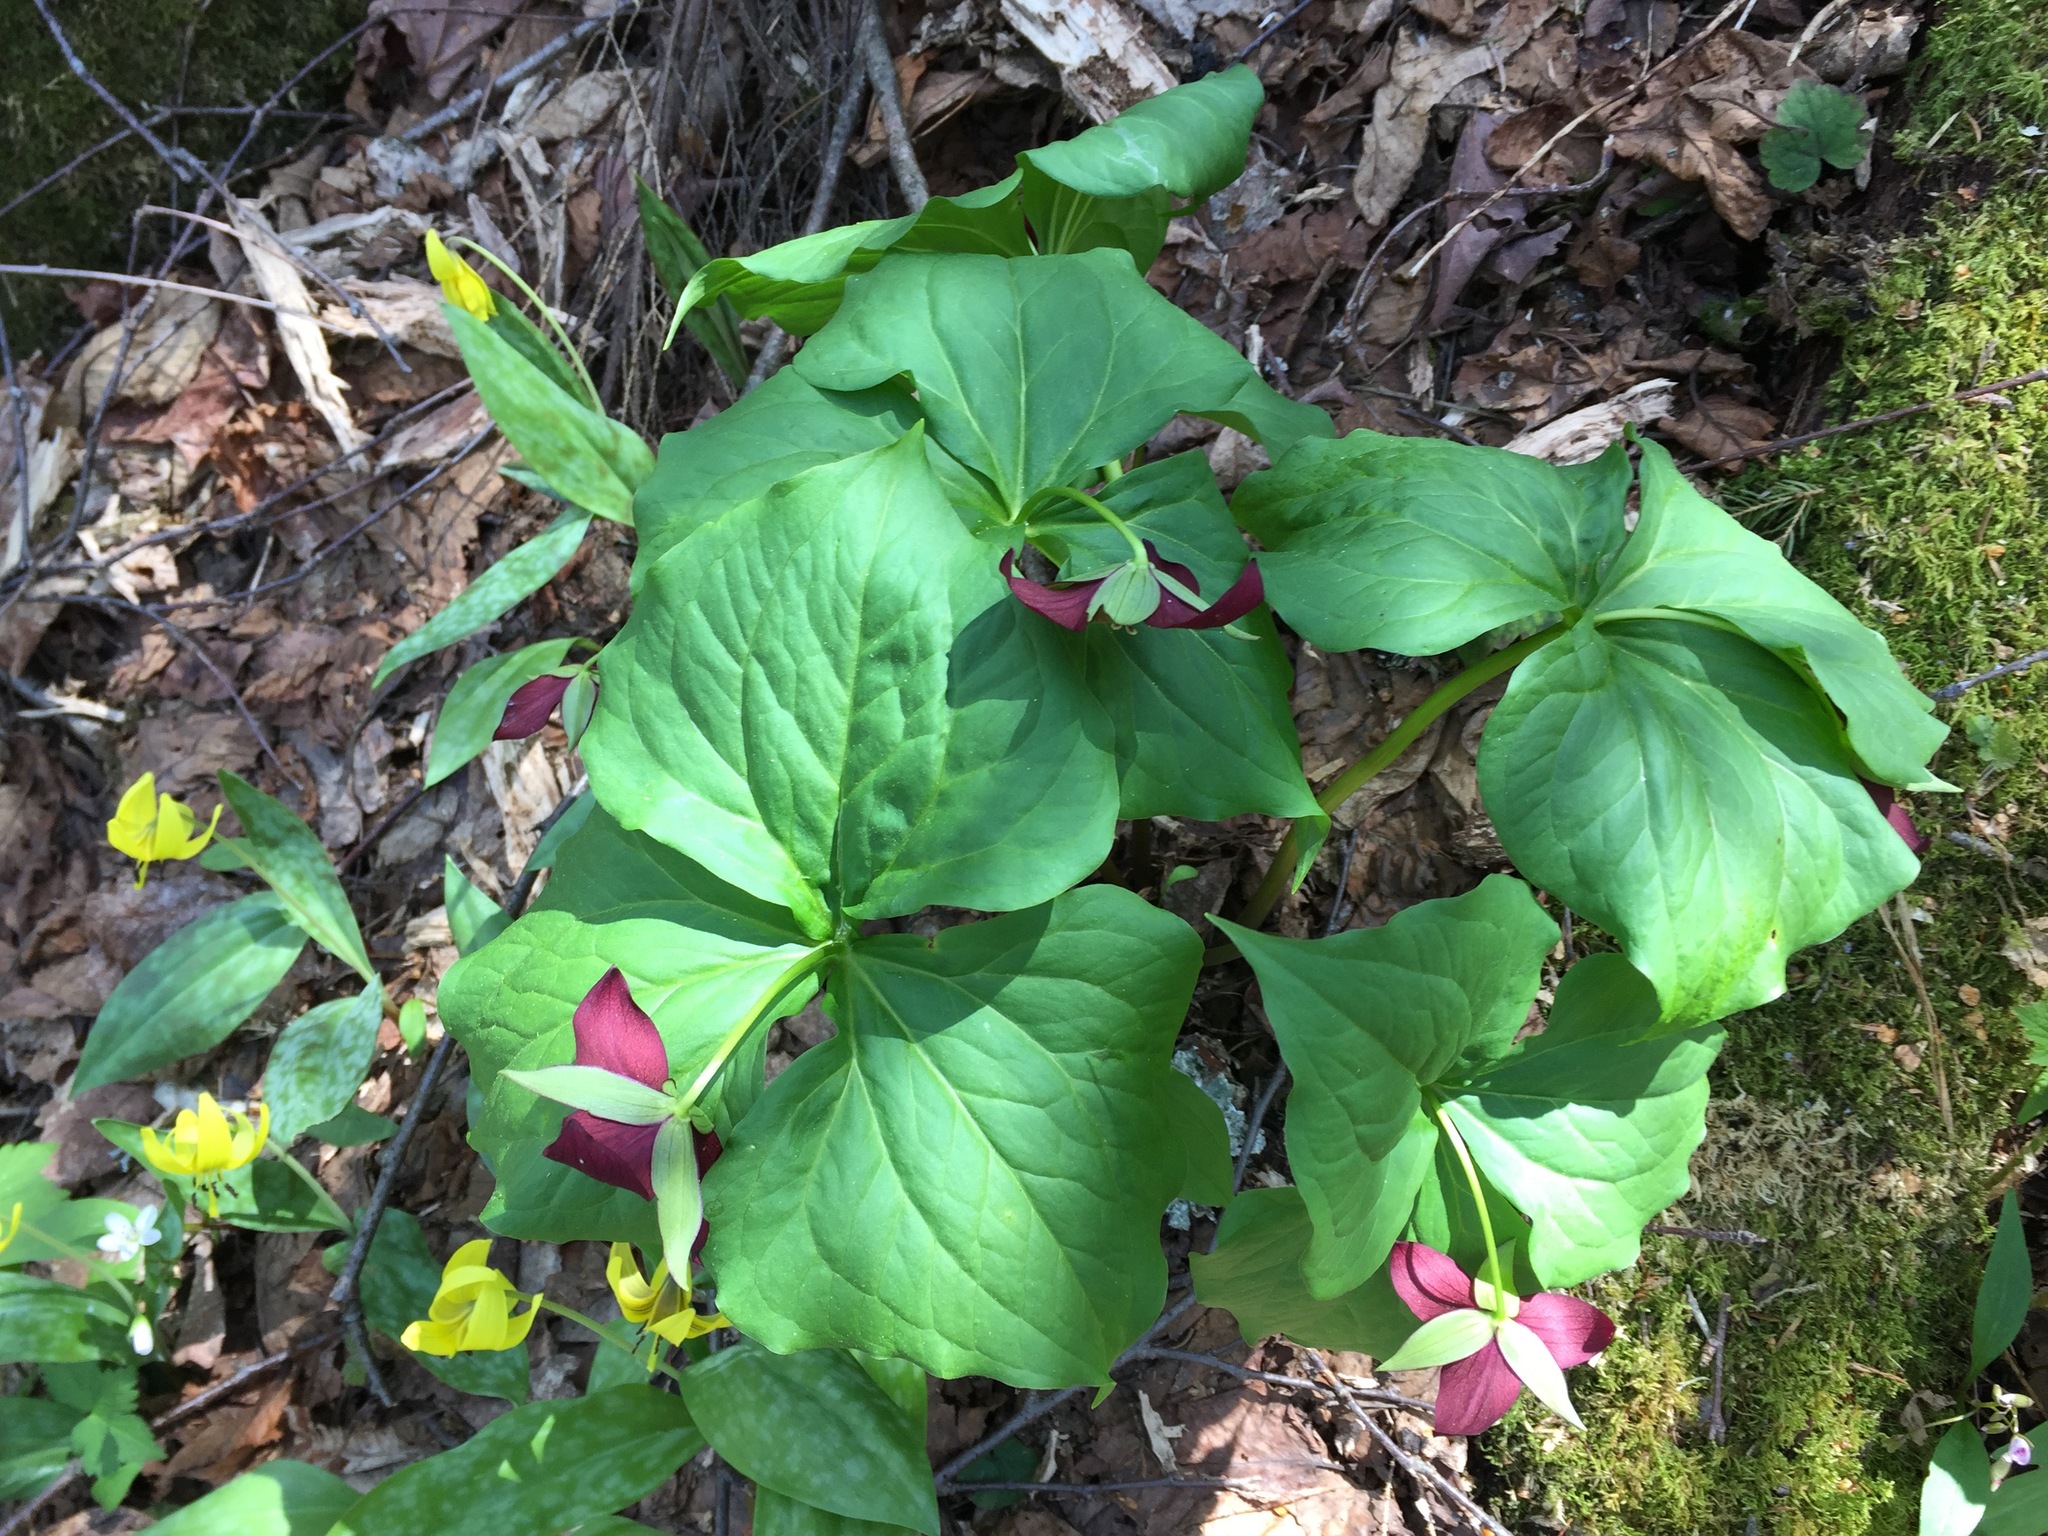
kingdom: Plantae
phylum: Tracheophyta
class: Liliopsida
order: Liliales
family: Melanthiaceae
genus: Trillium
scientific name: Trillium erectum
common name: Purple trillium
